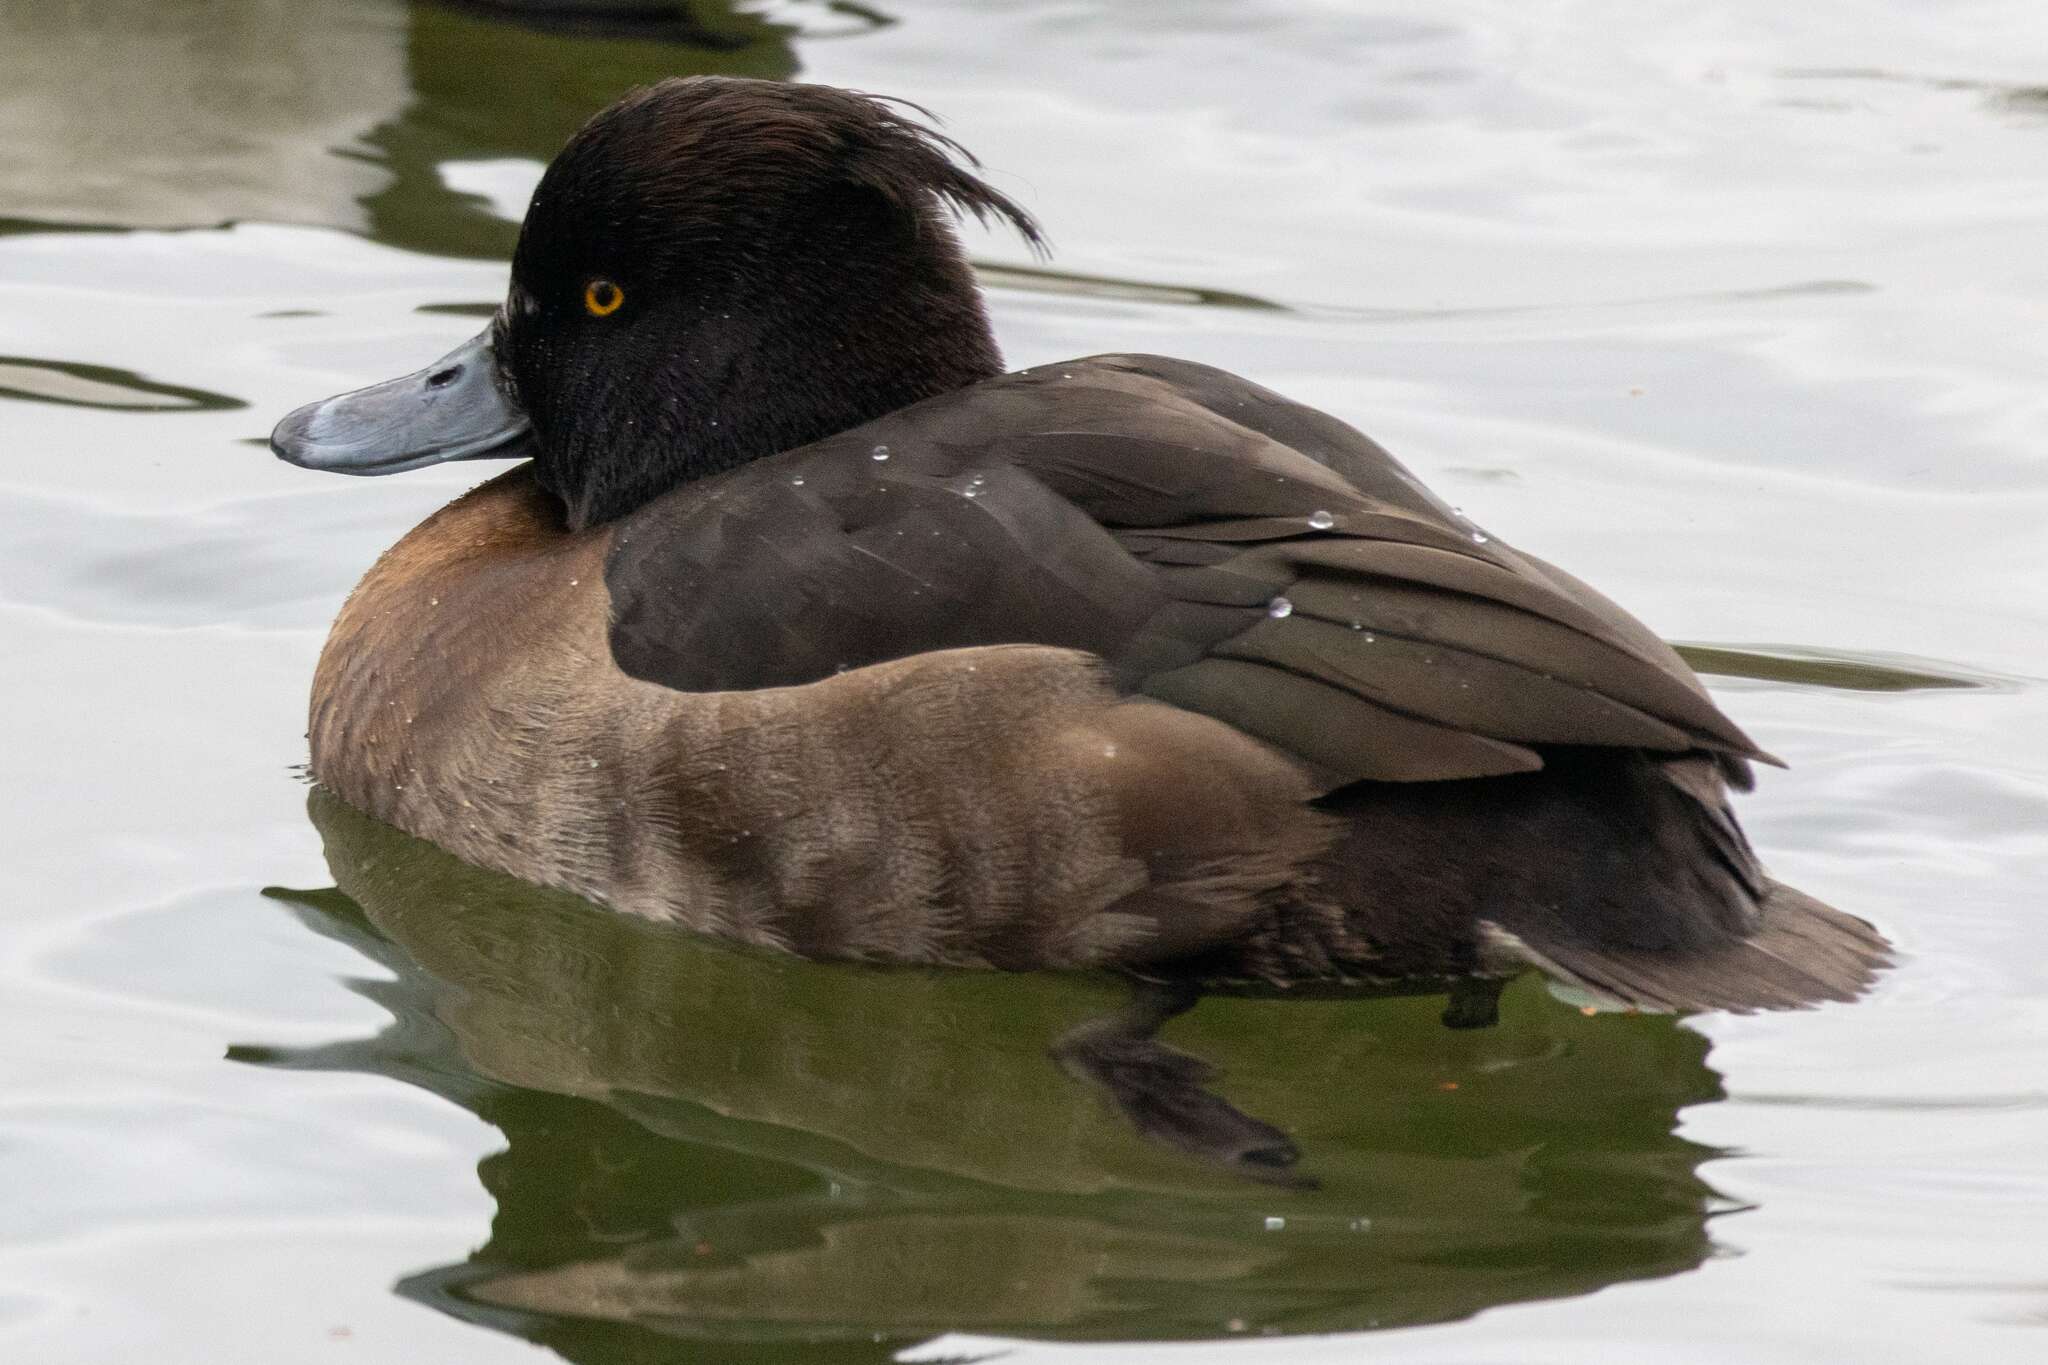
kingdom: Animalia
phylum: Chordata
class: Aves
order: Anseriformes
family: Anatidae
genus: Aythya
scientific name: Aythya fuligula
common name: Tufted duck
